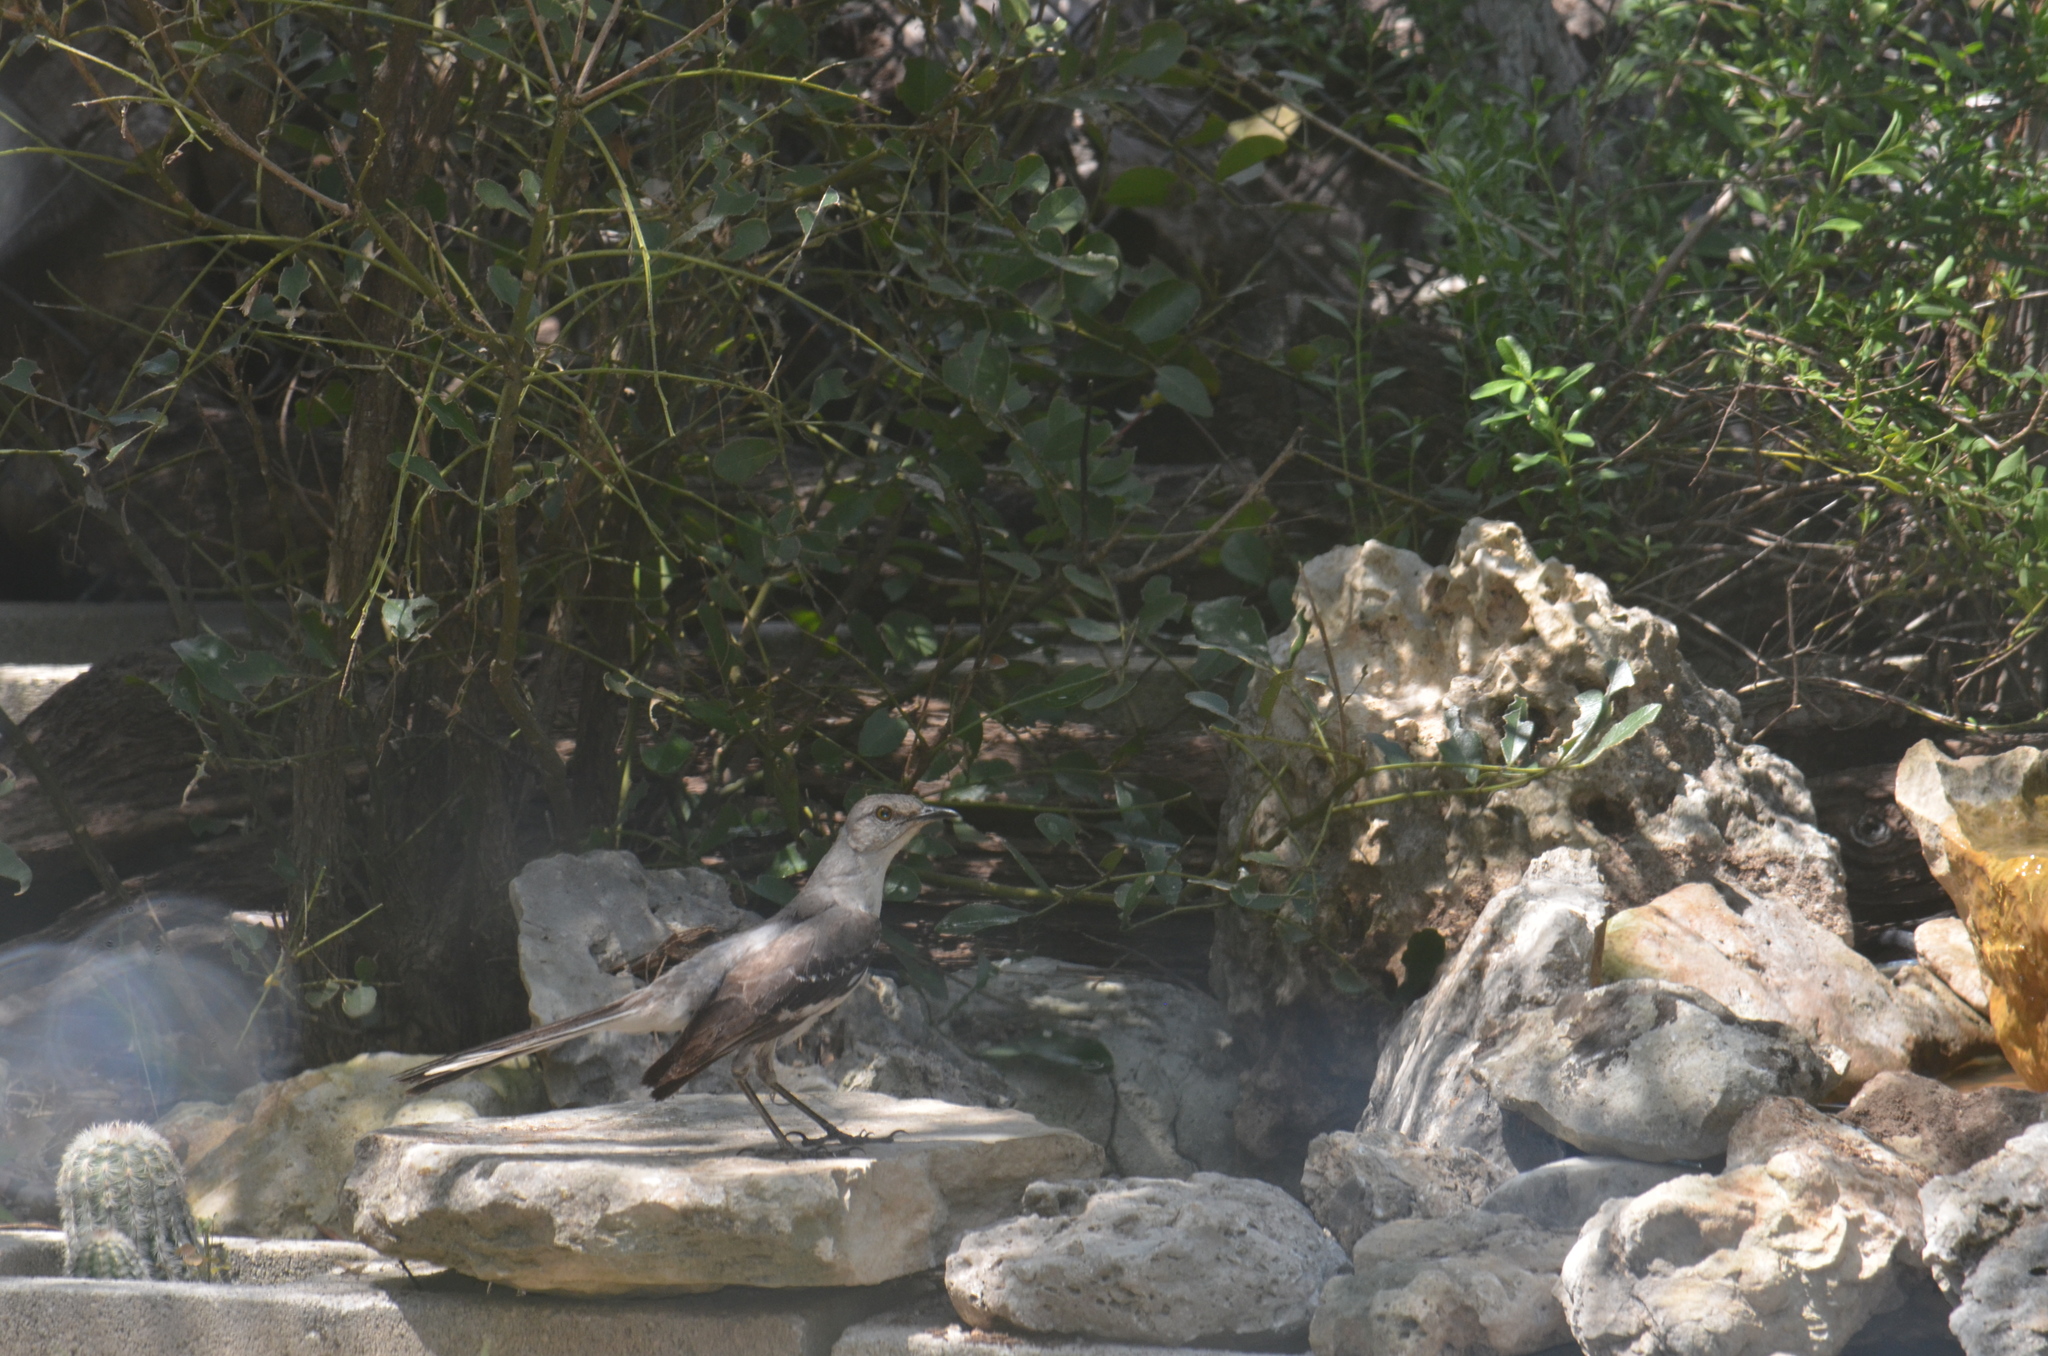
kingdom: Animalia
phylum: Chordata
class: Aves
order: Passeriformes
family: Mimidae
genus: Mimus
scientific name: Mimus polyglottos
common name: Northern mockingbird
